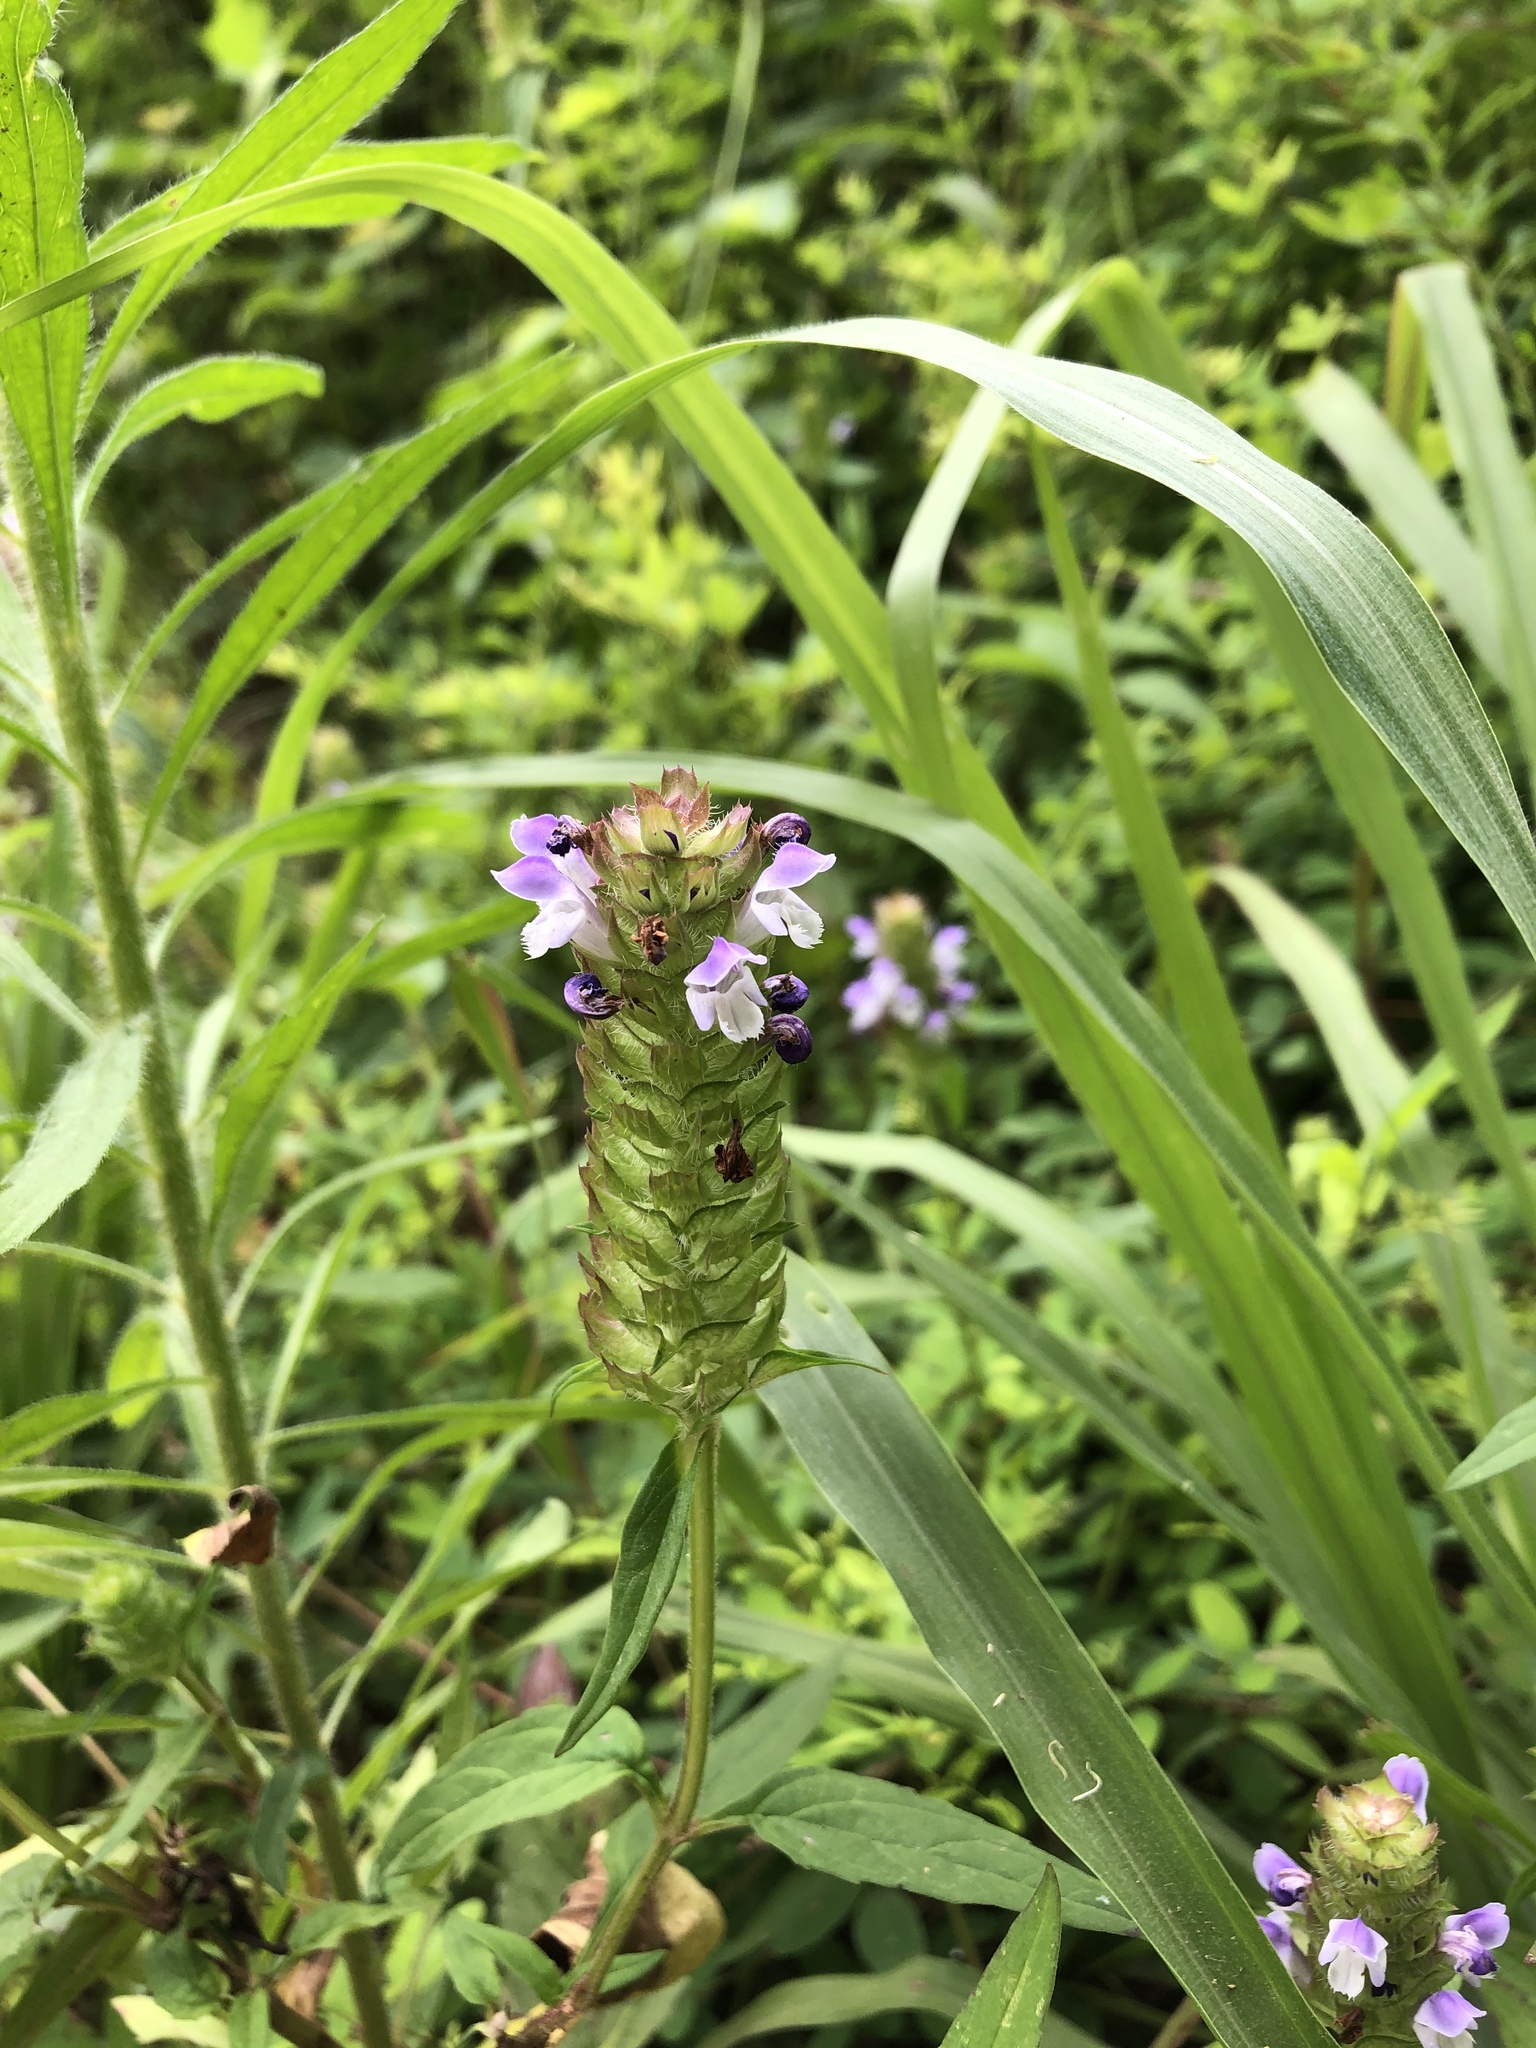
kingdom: Plantae
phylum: Tracheophyta
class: Magnoliopsida
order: Lamiales
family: Lamiaceae
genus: Prunella
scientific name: Prunella vulgaris
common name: Heal-all
